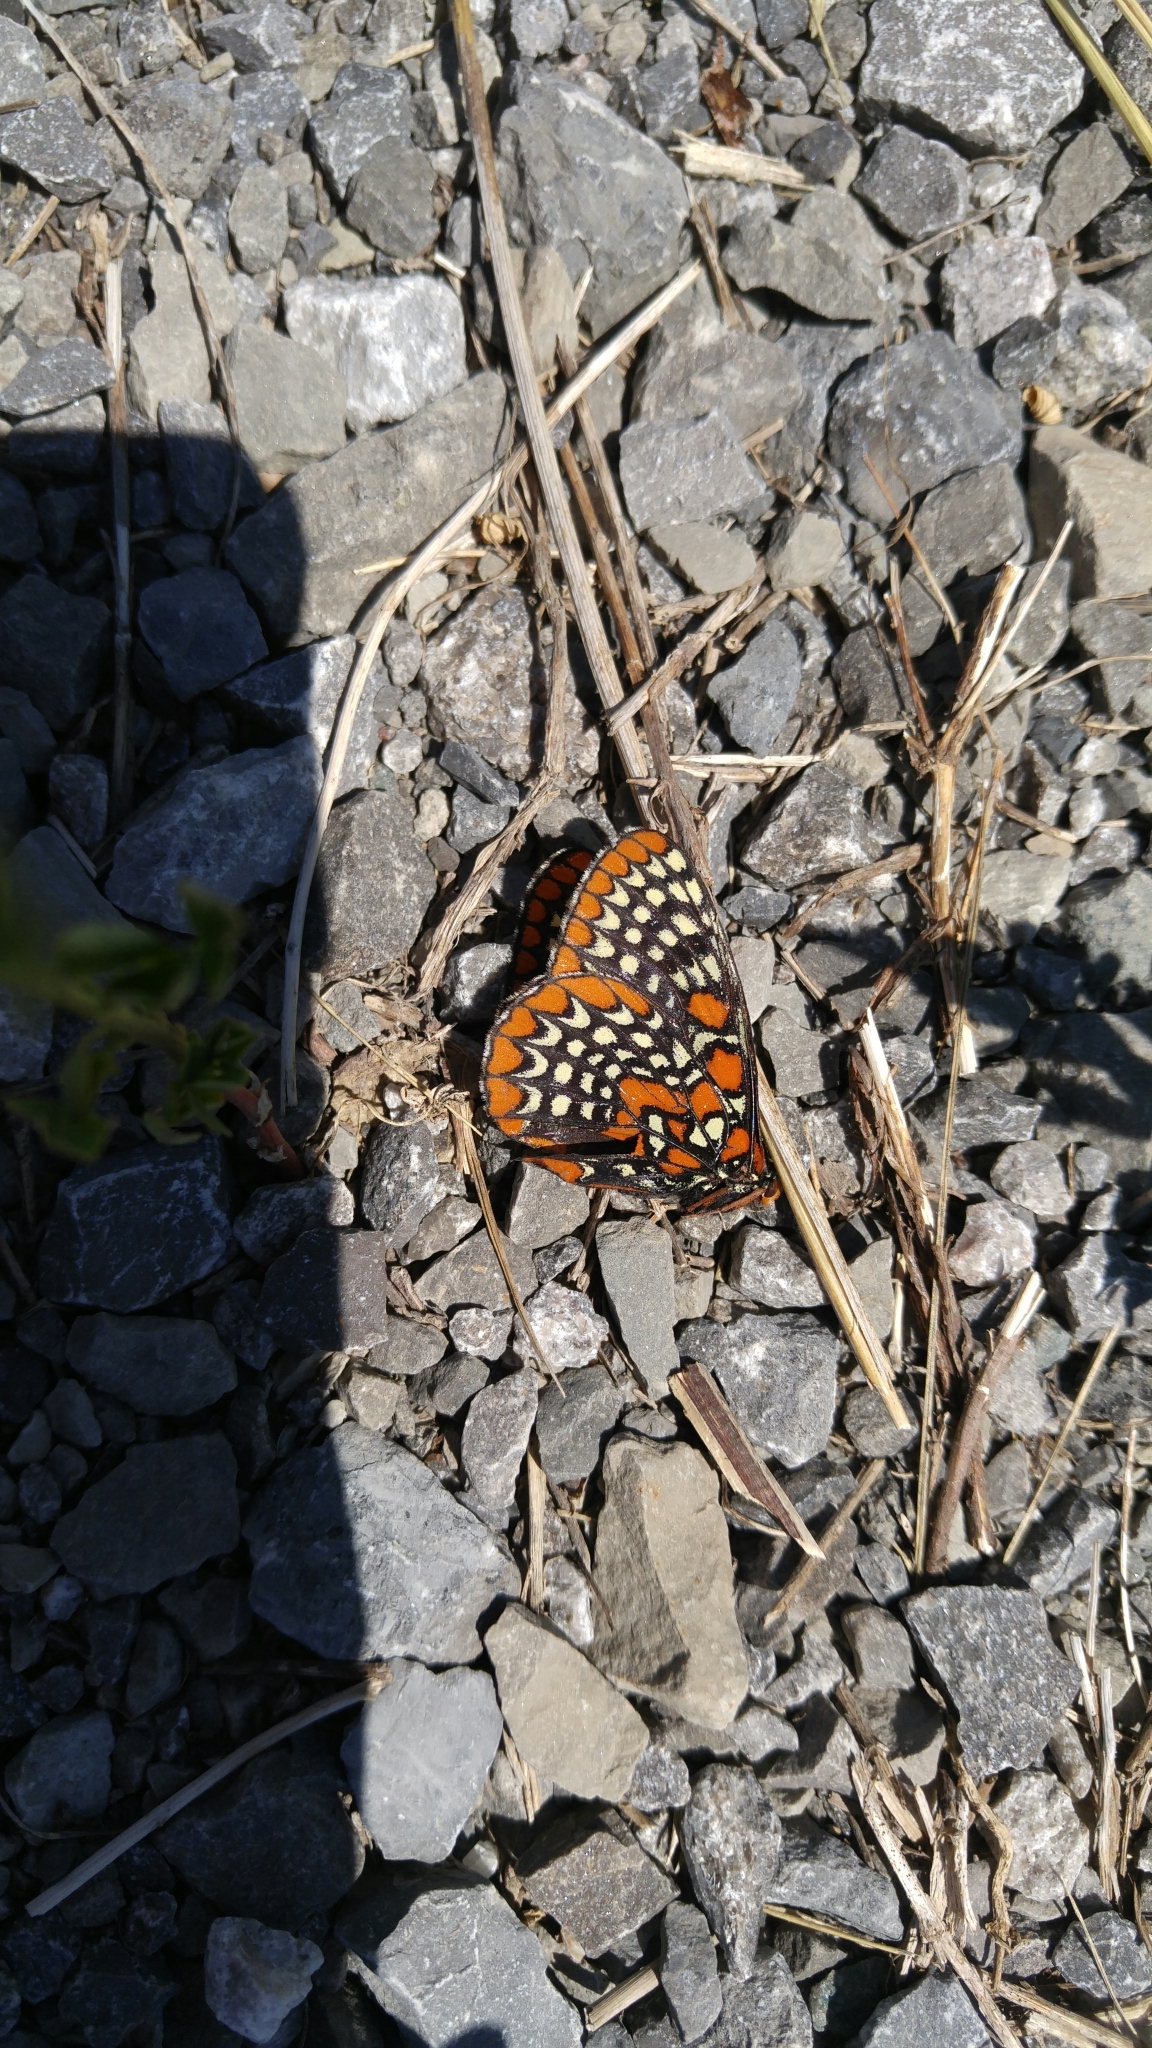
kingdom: Animalia
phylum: Arthropoda
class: Insecta
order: Lepidoptera
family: Nymphalidae
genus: Euphydryas
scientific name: Euphydryas phaeton
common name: Baltimore checkerspot
